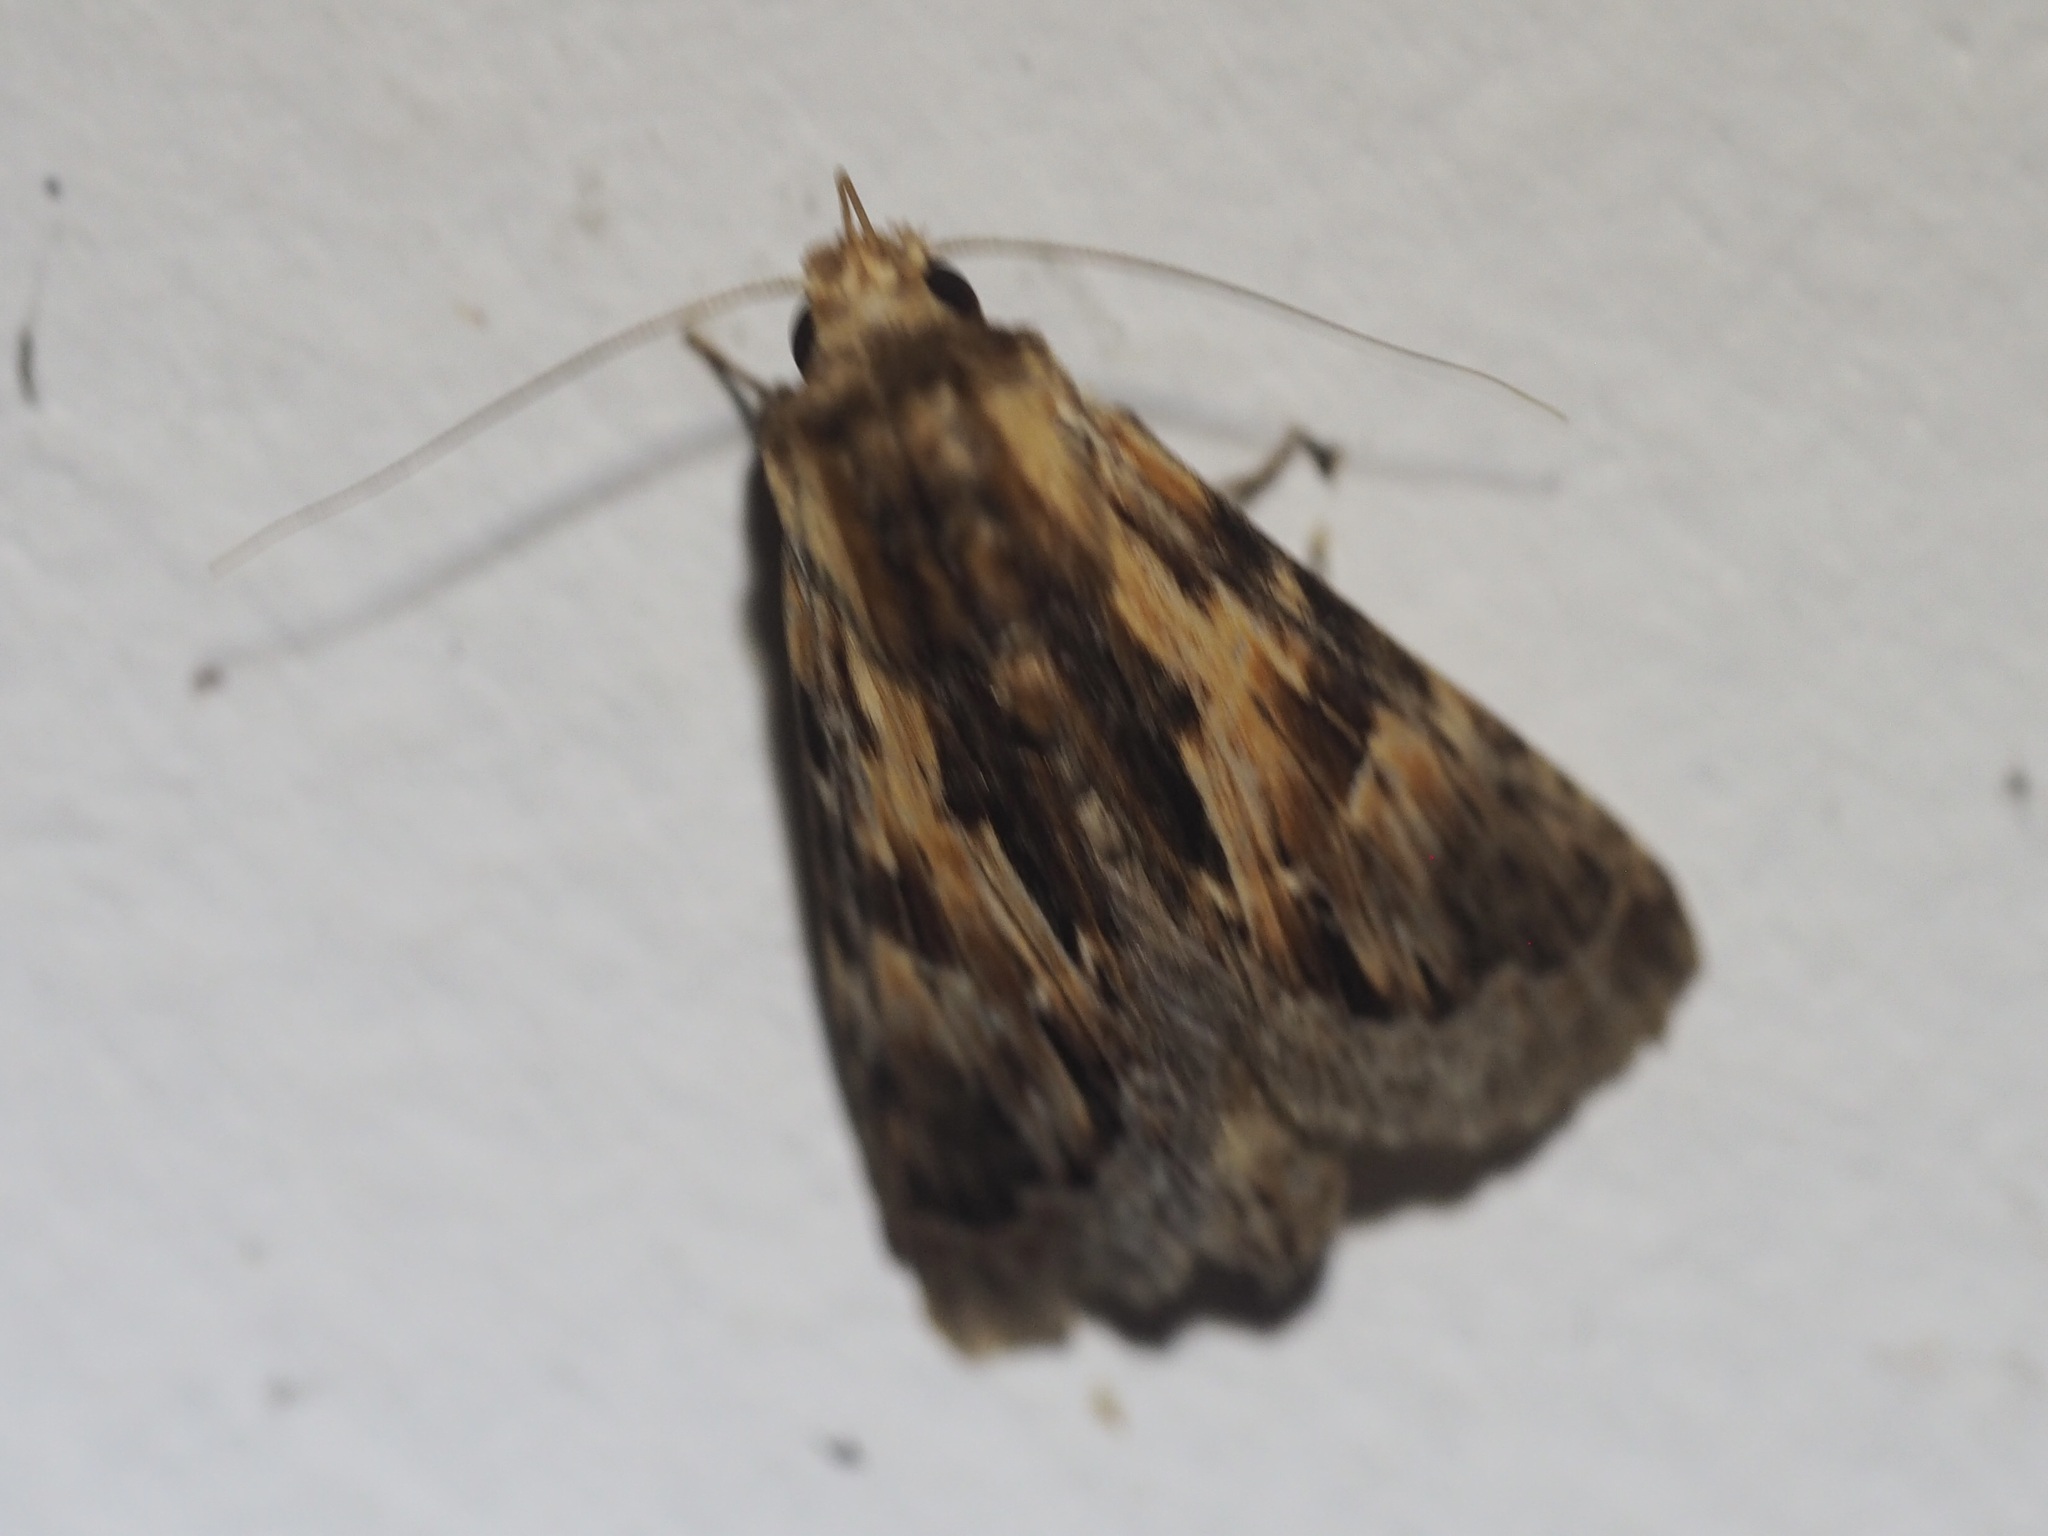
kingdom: Animalia
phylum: Arthropoda
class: Insecta
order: Lepidoptera
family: Notodontidae
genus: Lemairegisa
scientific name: Lemairegisa Lepasta mixta
